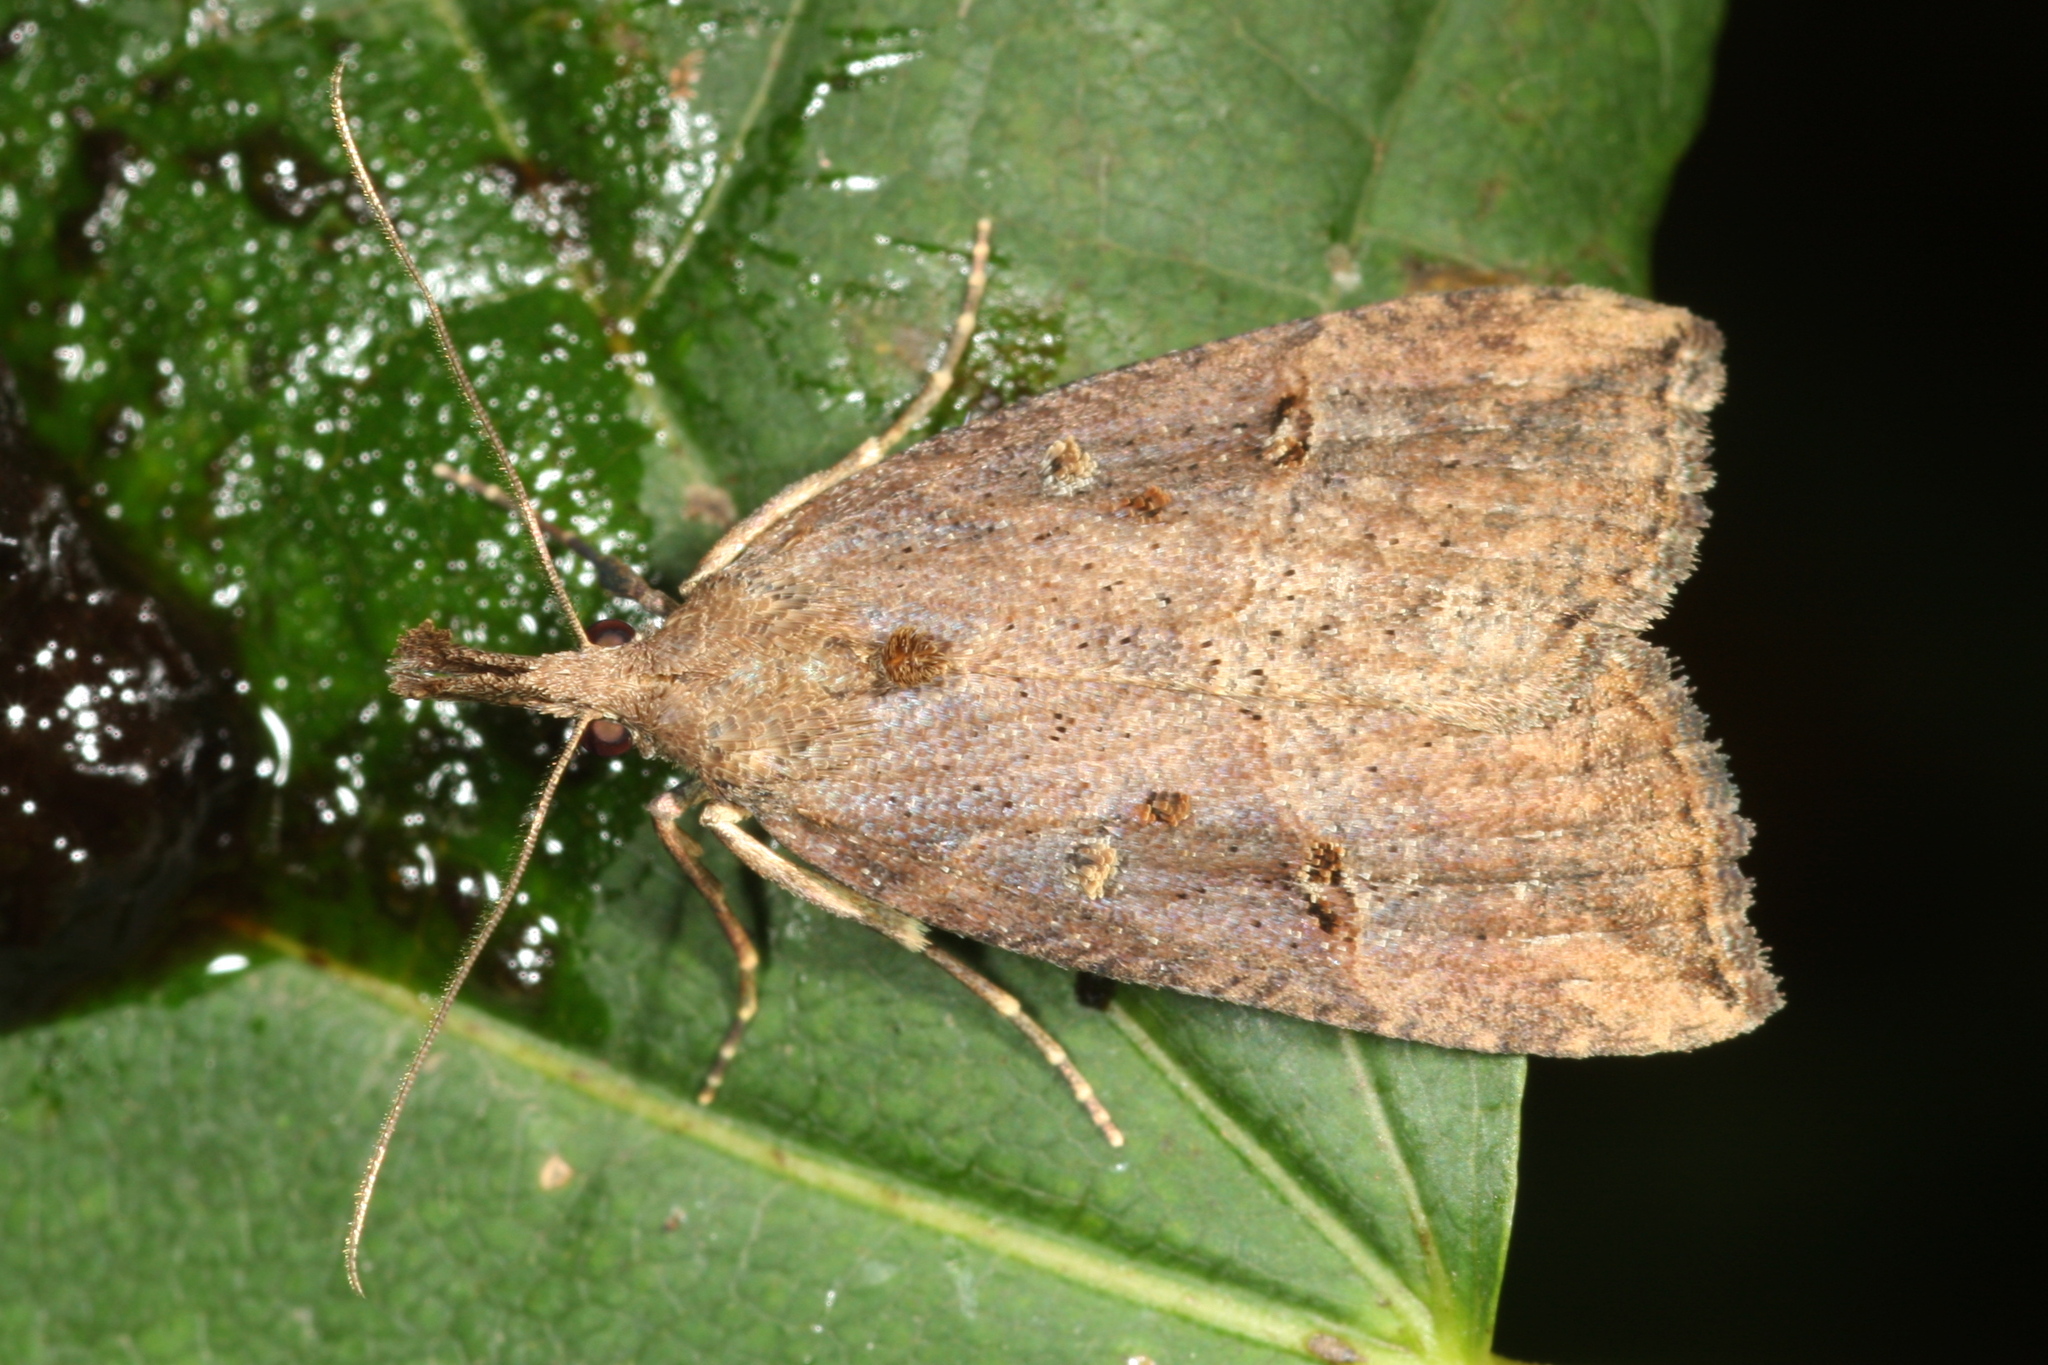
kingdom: Animalia
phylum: Arthropoda
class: Insecta
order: Lepidoptera
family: Erebidae
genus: Hypena
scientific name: Hypena rostralis
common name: Buttoned snout
